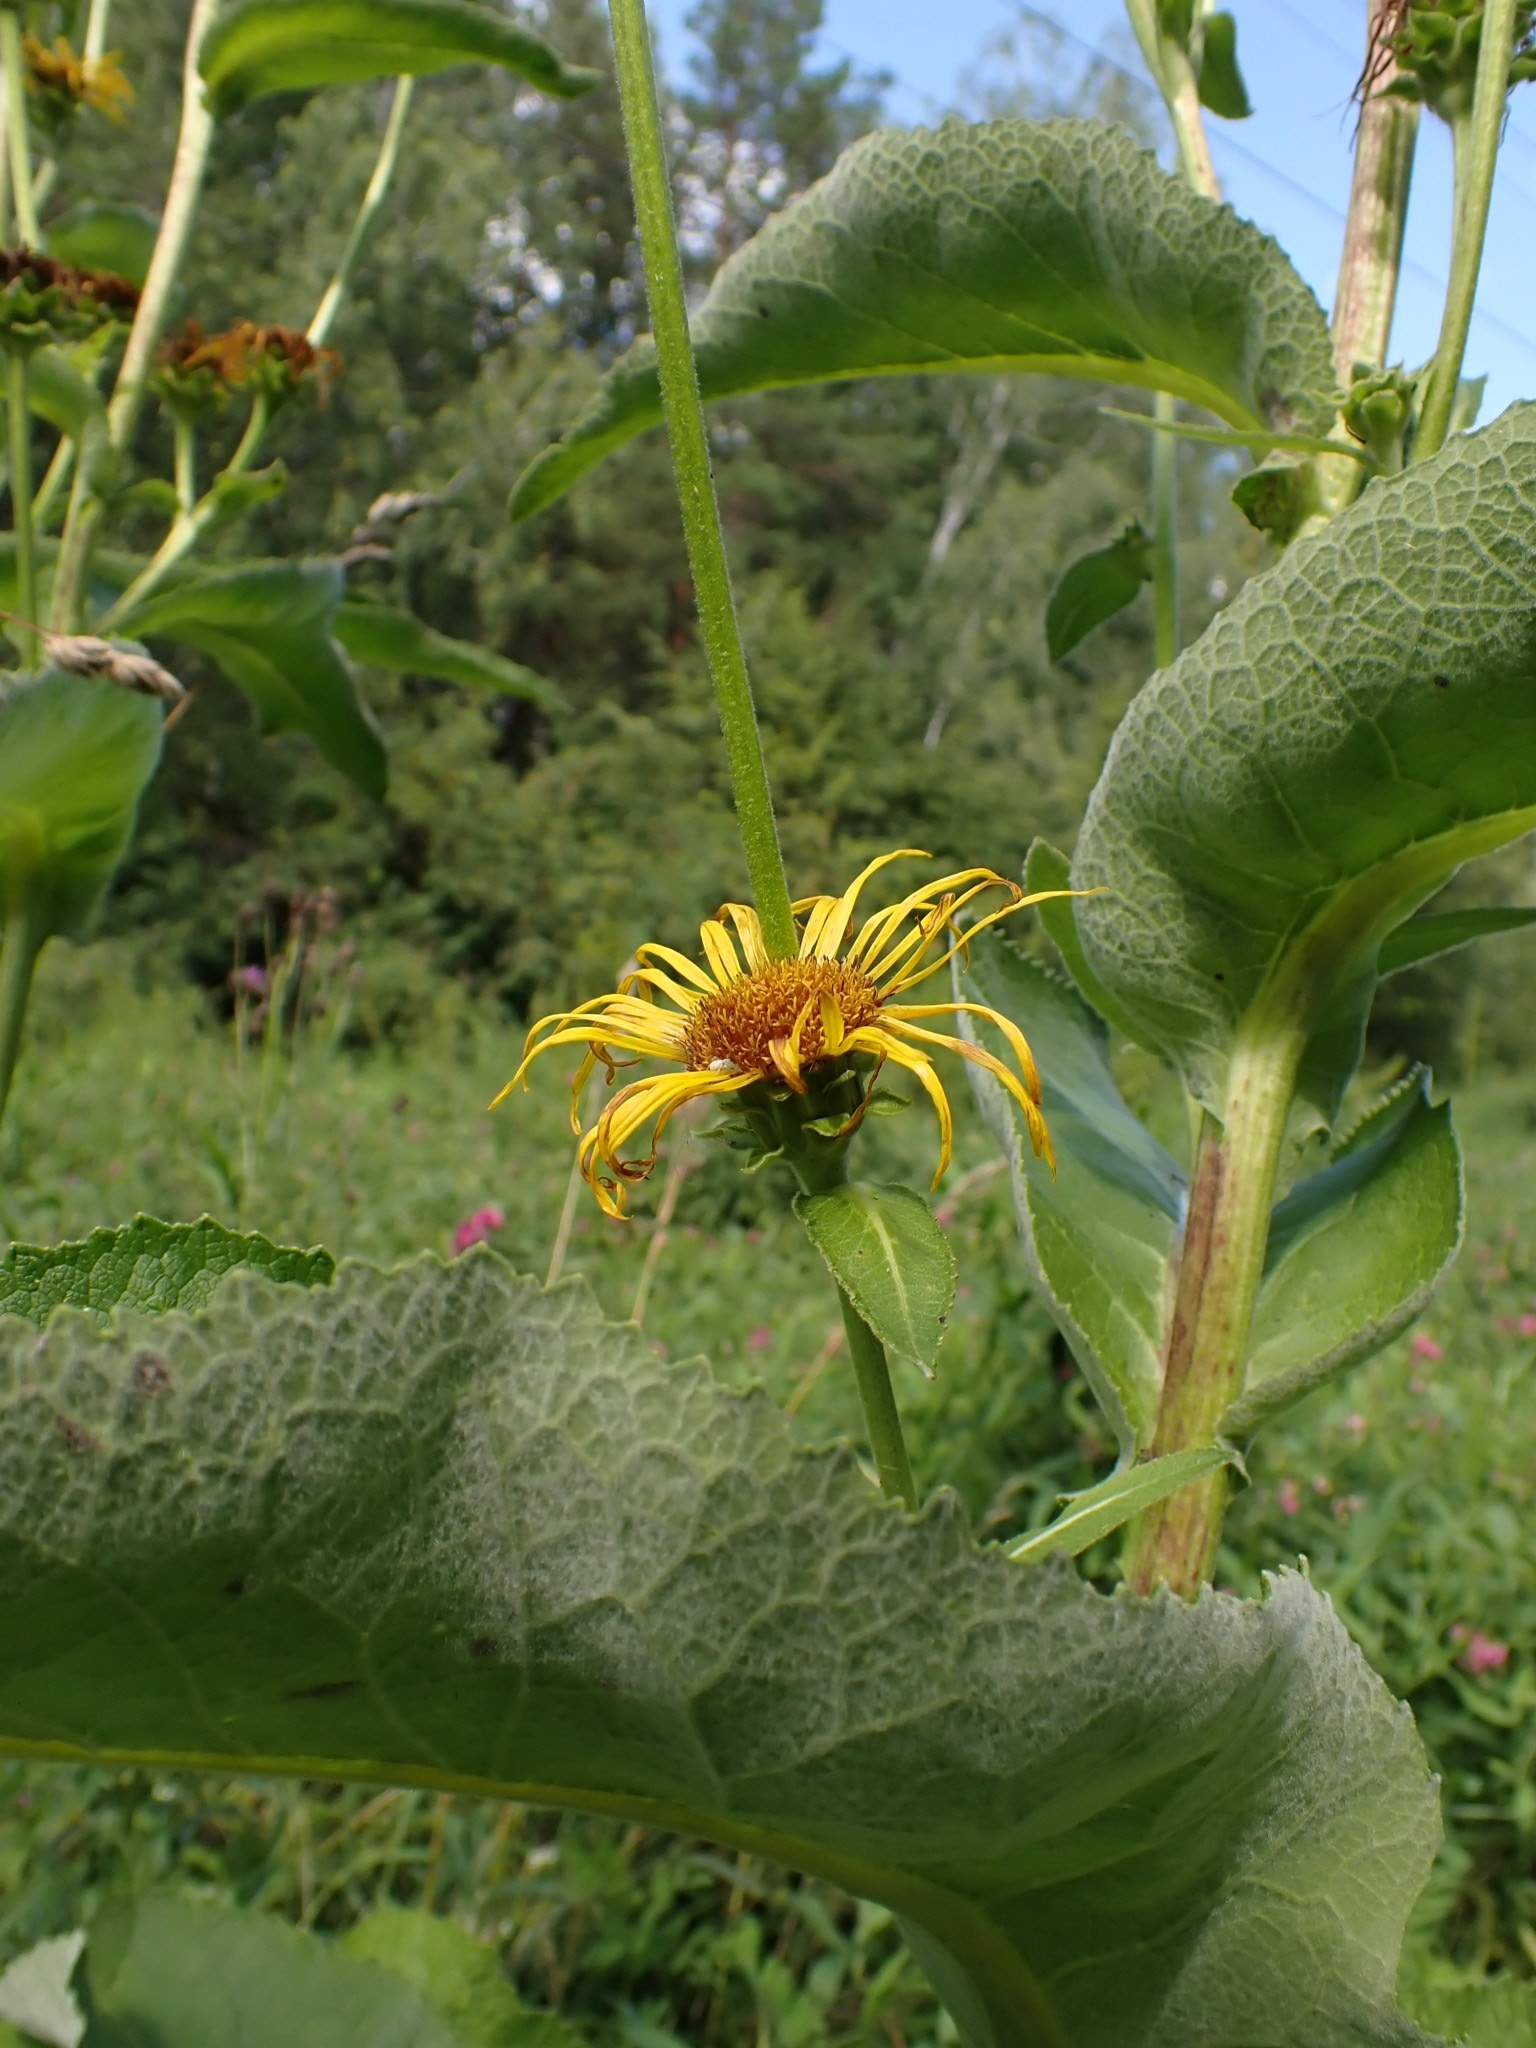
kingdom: Plantae
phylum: Tracheophyta
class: Magnoliopsida
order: Asterales
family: Asteraceae
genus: Inula
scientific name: Inula helenium
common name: Elecampane
